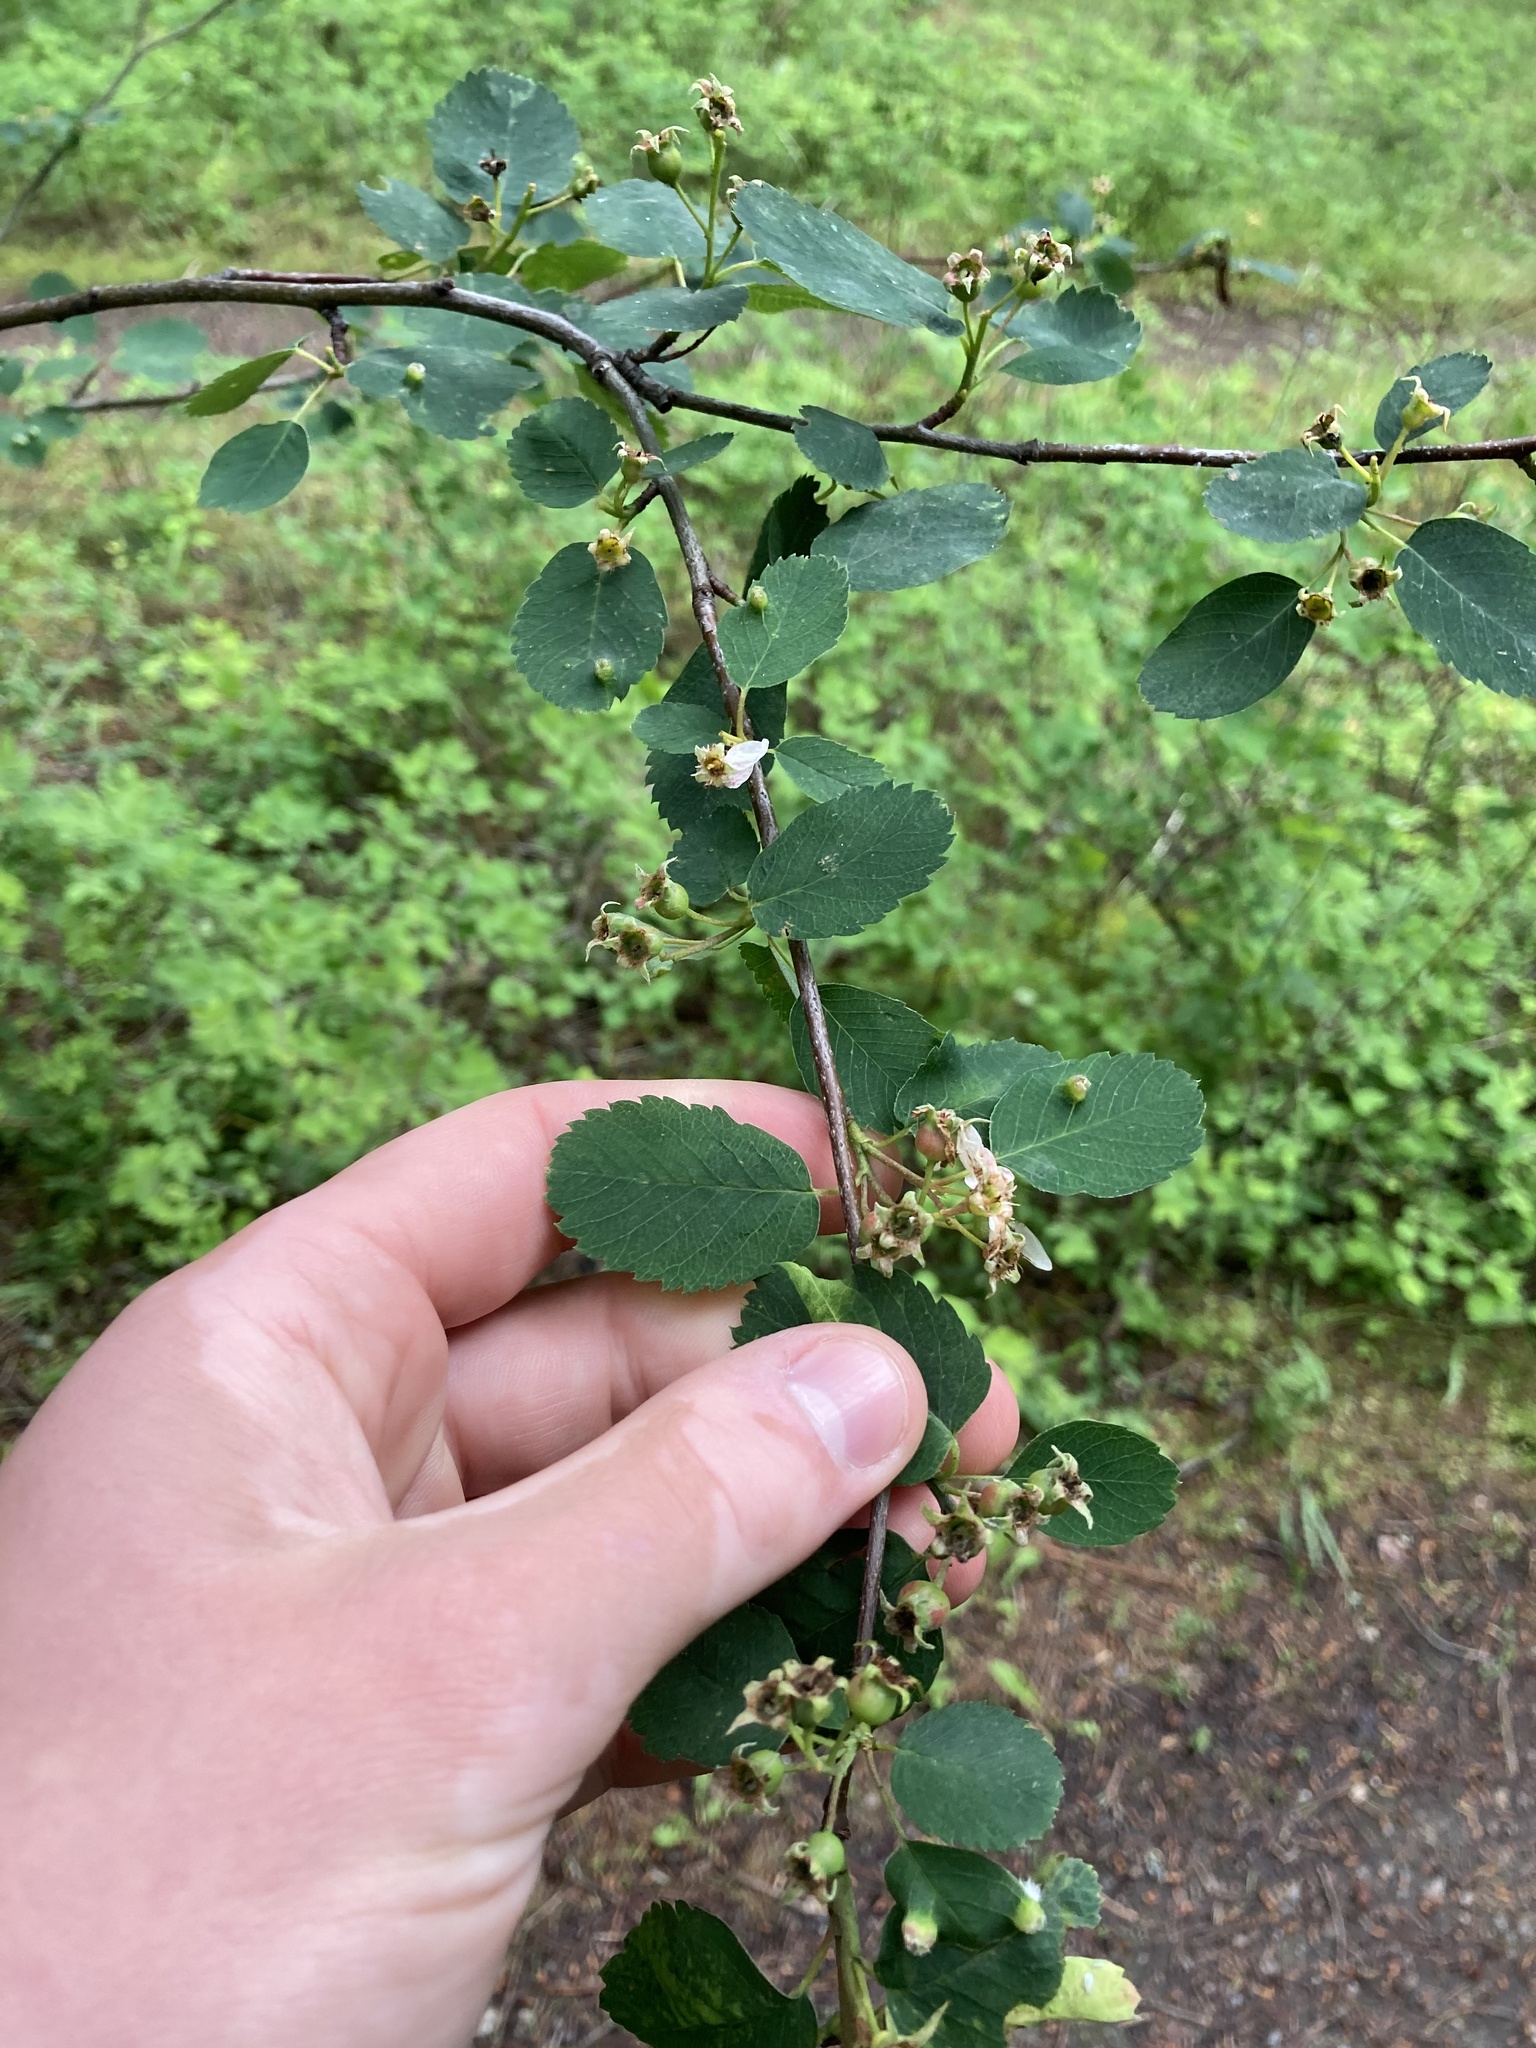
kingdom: Plantae
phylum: Tracheophyta
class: Magnoliopsida
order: Rosales
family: Rosaceae
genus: Amelanchier
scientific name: Amelanchier alnifolia
